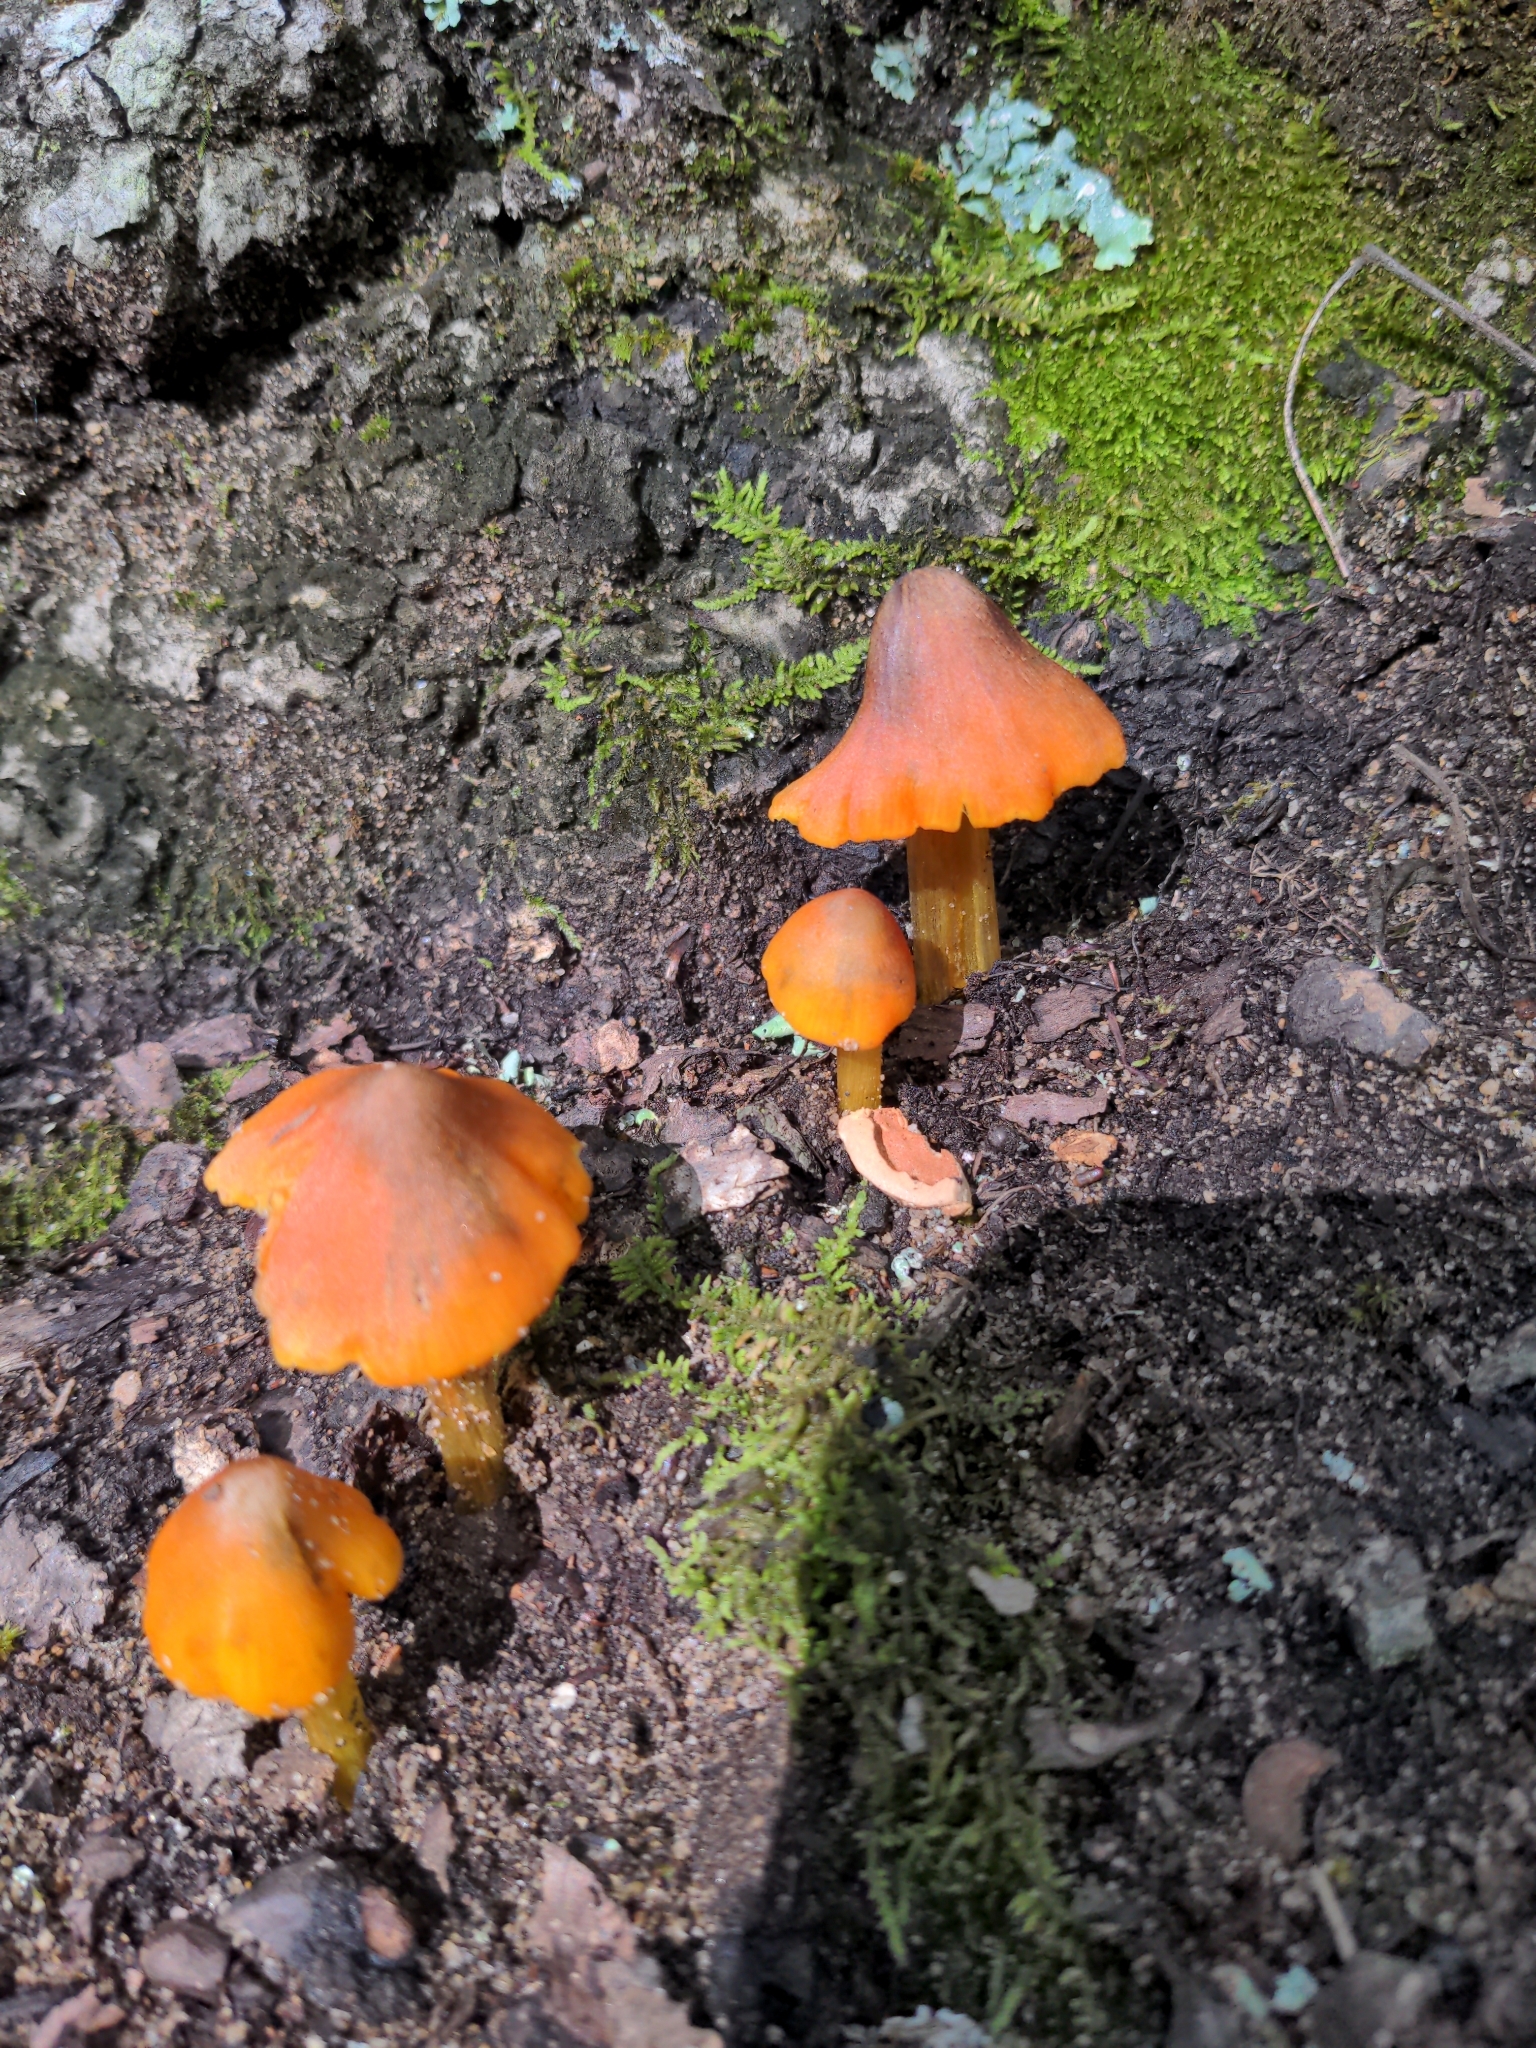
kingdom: Fungi
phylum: Basidiomycota
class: Agaricomycetes
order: Agaricales
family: Hygrophoraceae
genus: Hygrocybe
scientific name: Hygrocybe conica
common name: Blackening wax-cap
